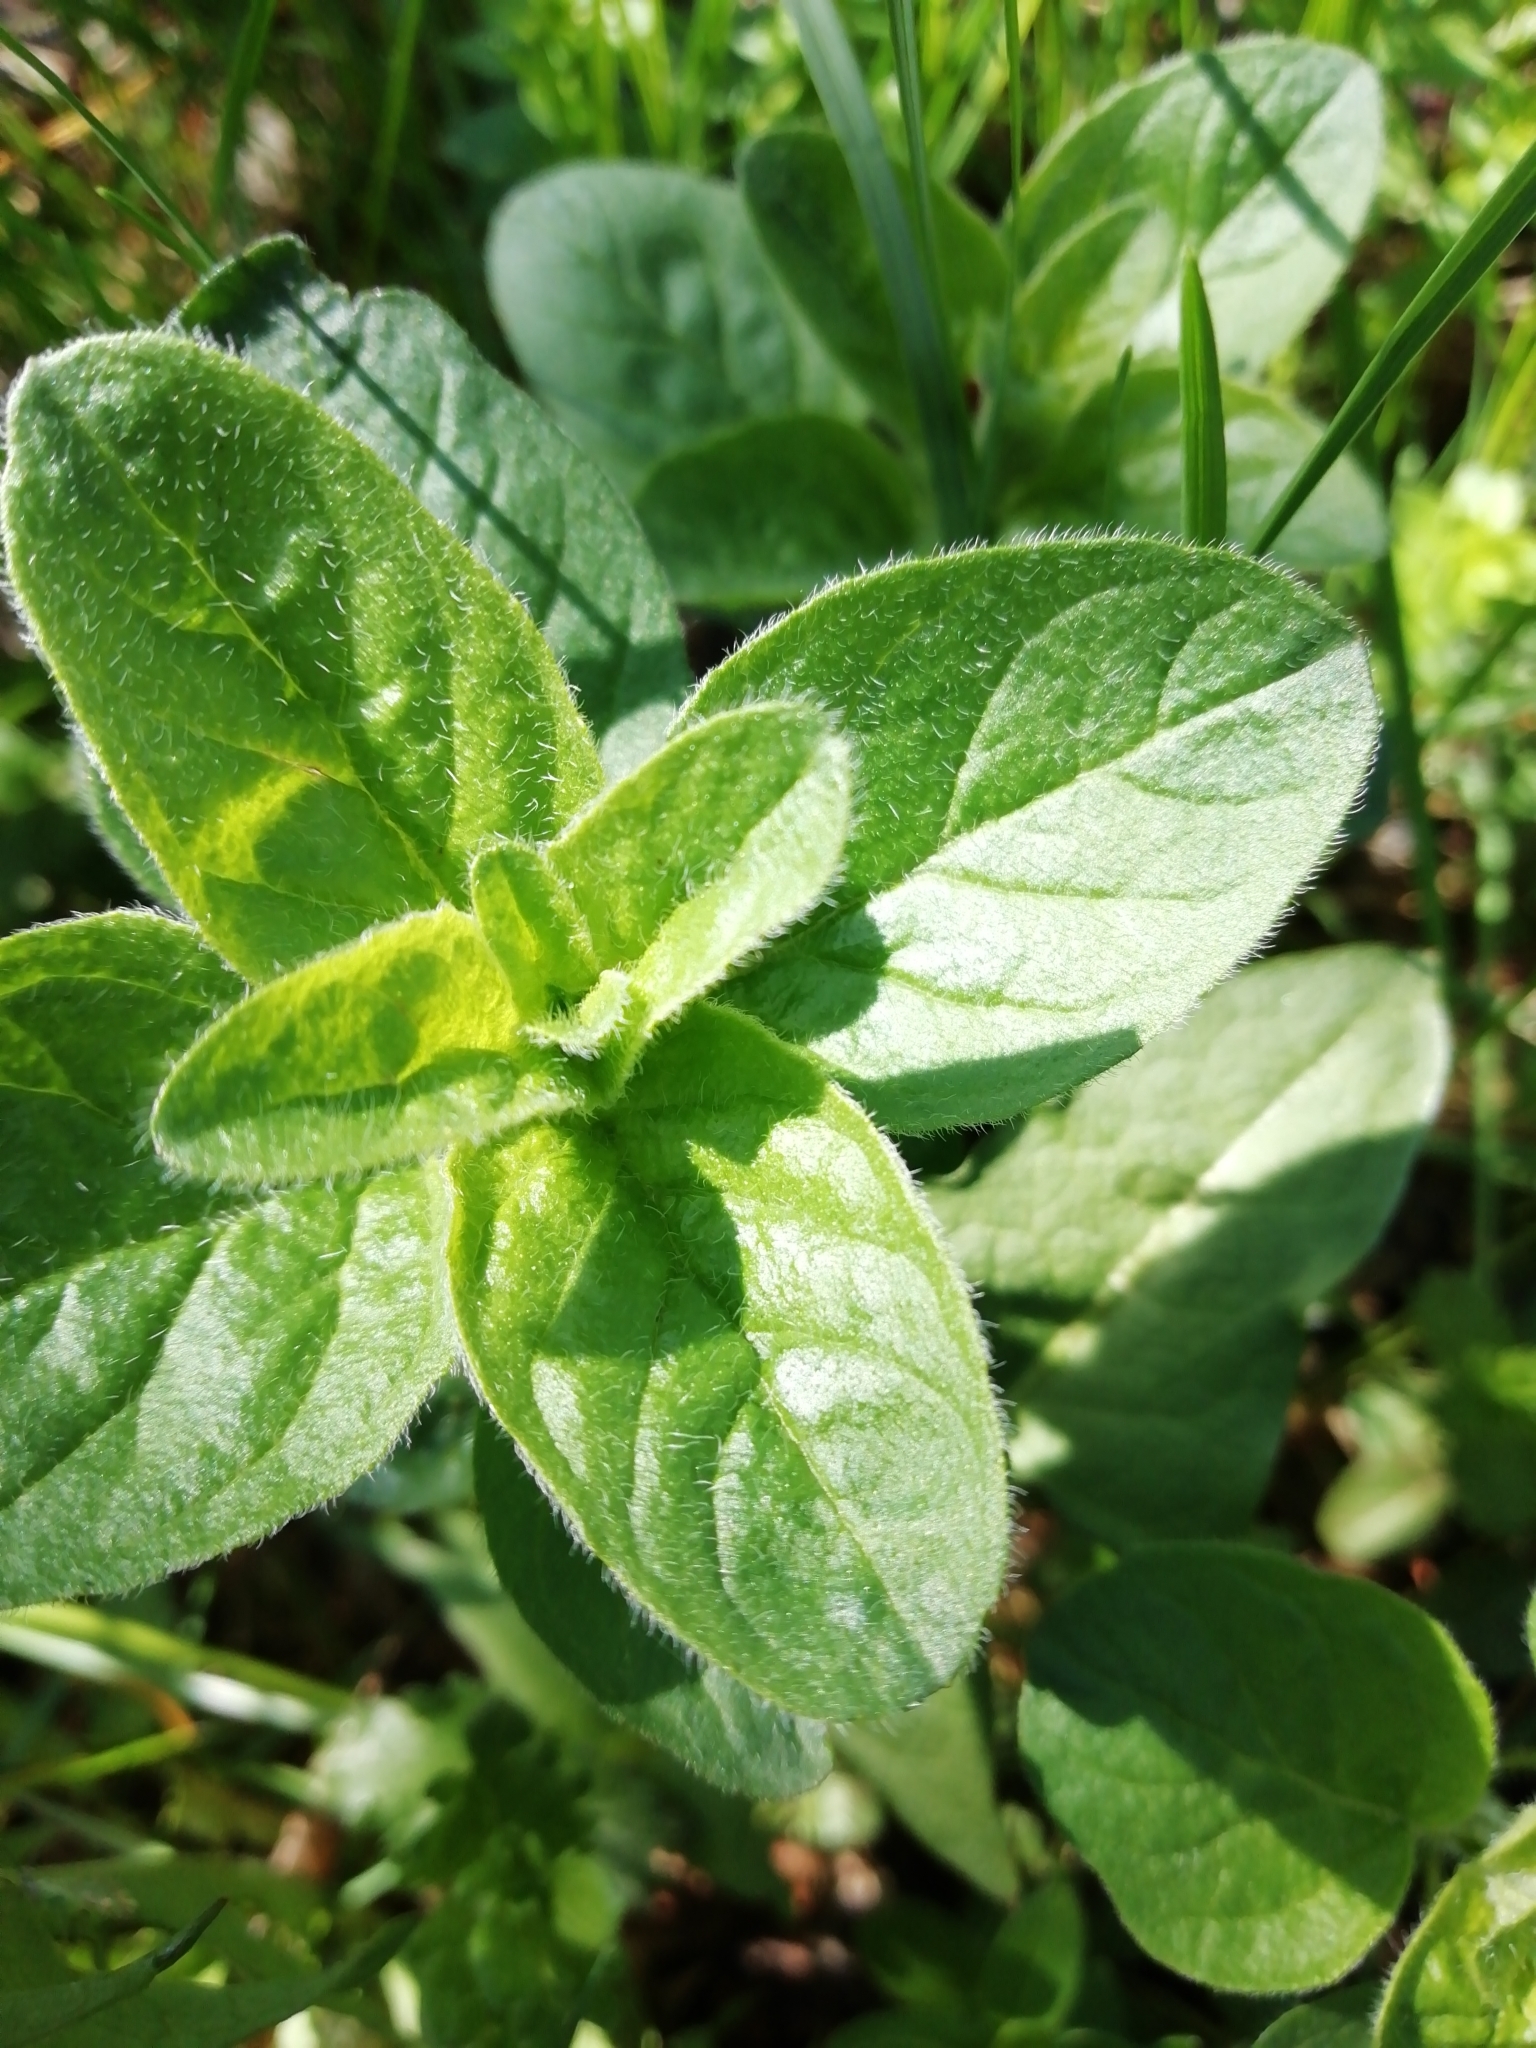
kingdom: Plantae
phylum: Tracheophyta
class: Magnoliopsida
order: Lamiales
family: Lamiaceae
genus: Origanum
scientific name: Origanum vulgare
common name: Wild marjoram
